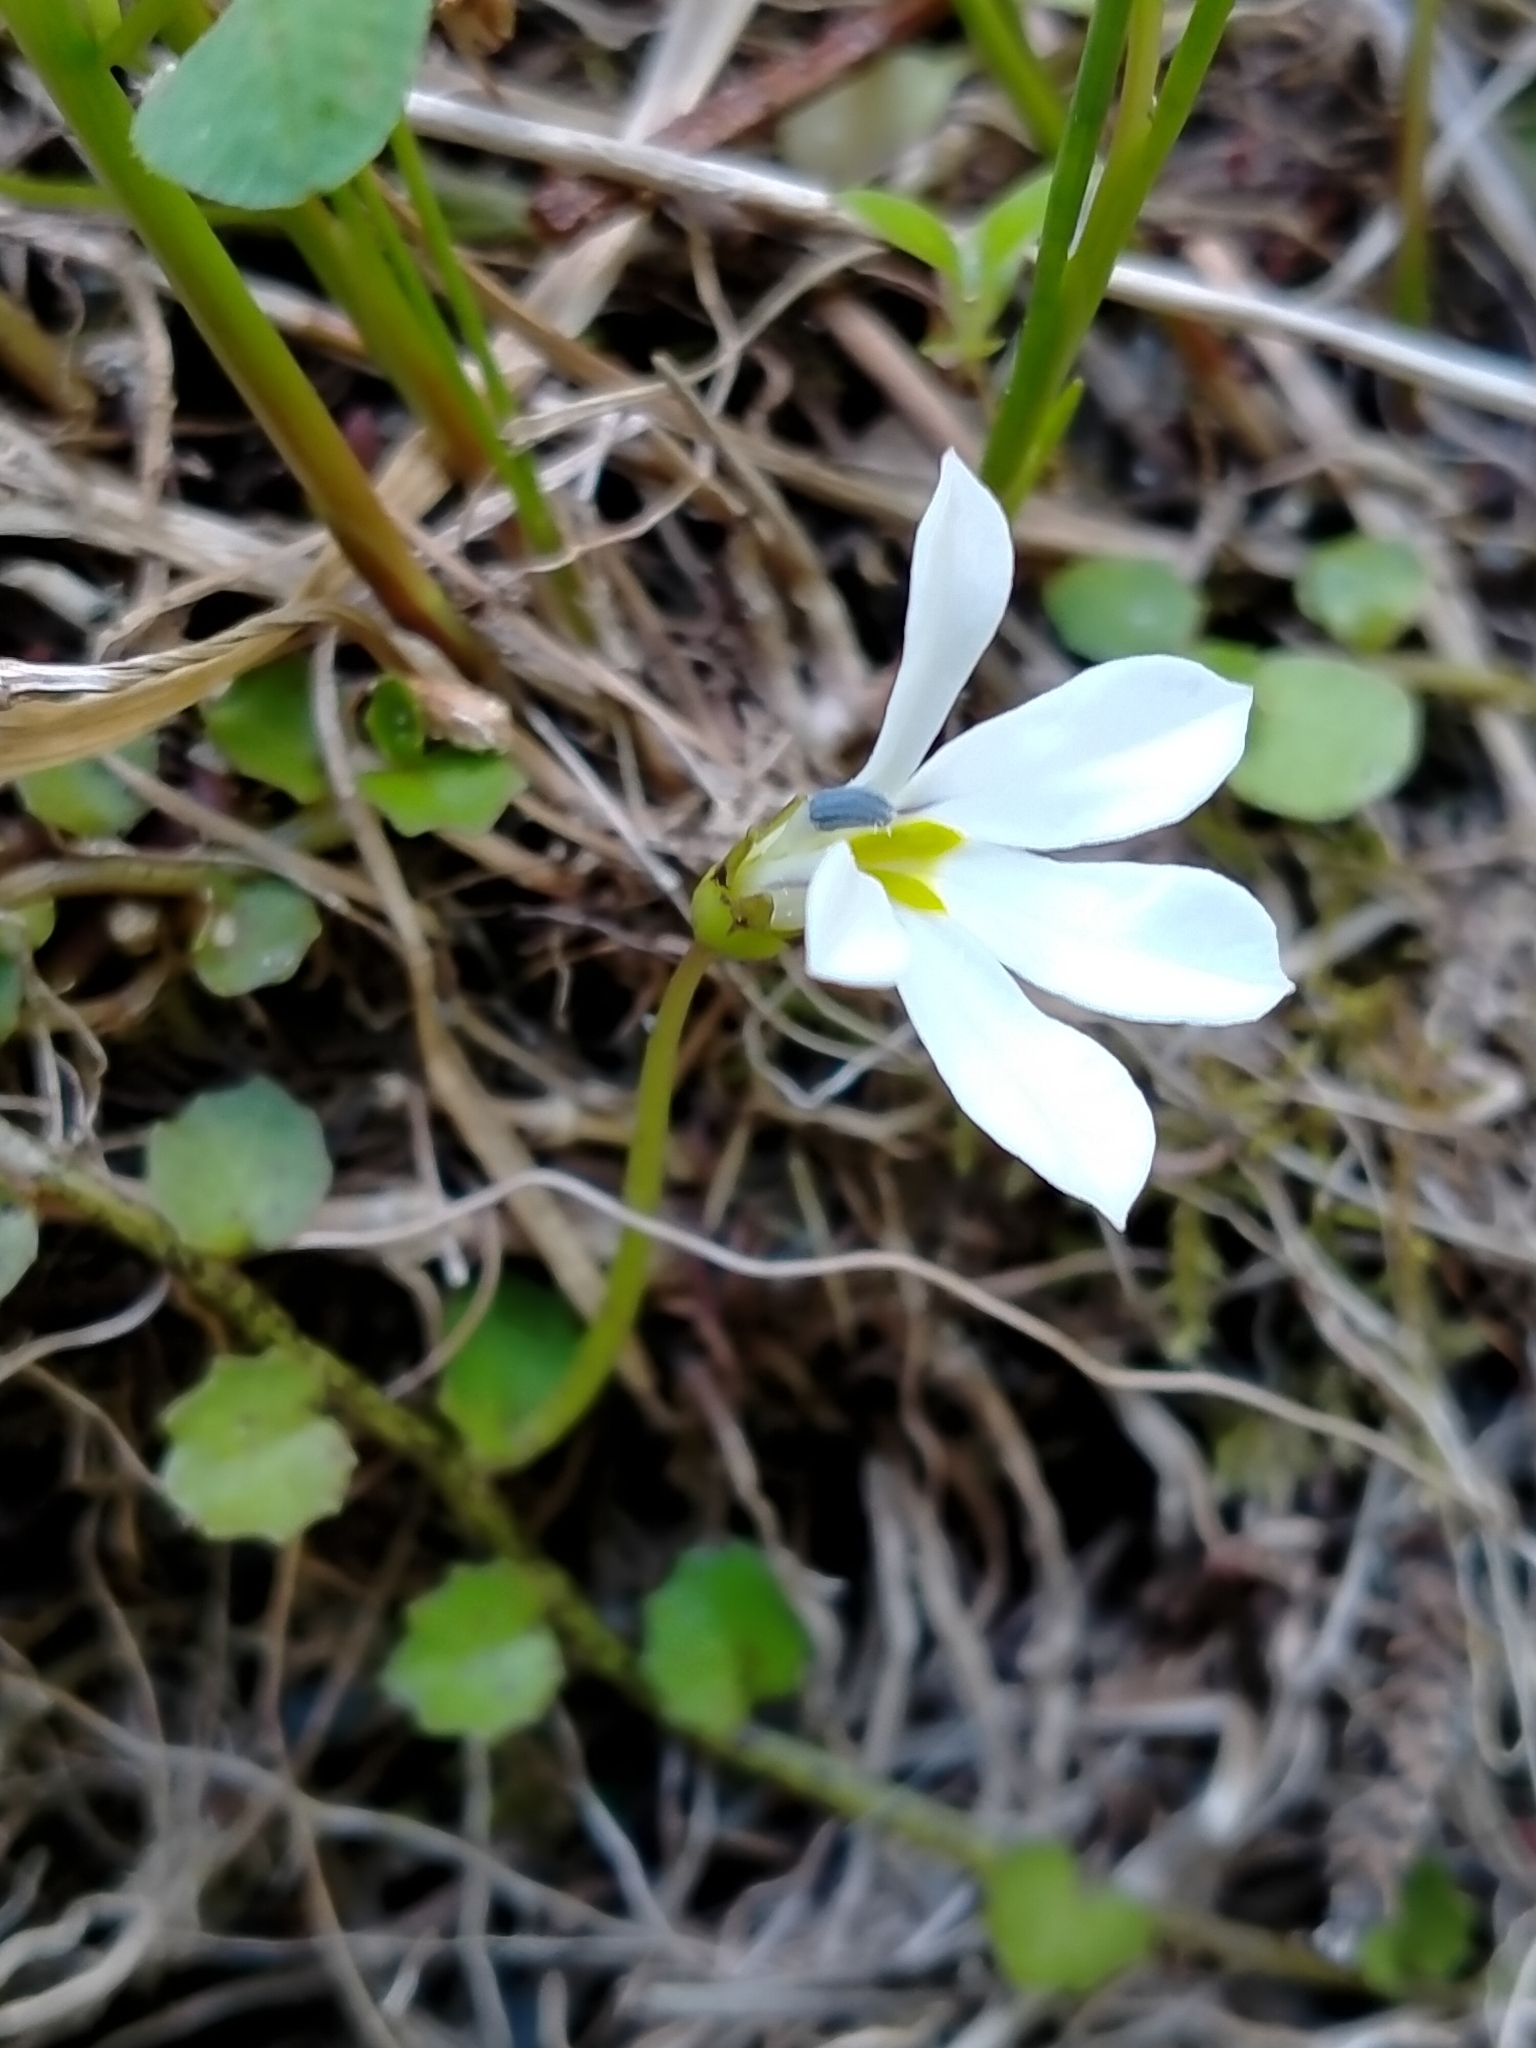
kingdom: Plantae
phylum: Tracheophyta
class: Magnoliopsida
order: Asterales
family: Campanulaceae
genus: Lobelia
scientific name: Lobelia angulata
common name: Lawn lobelia
